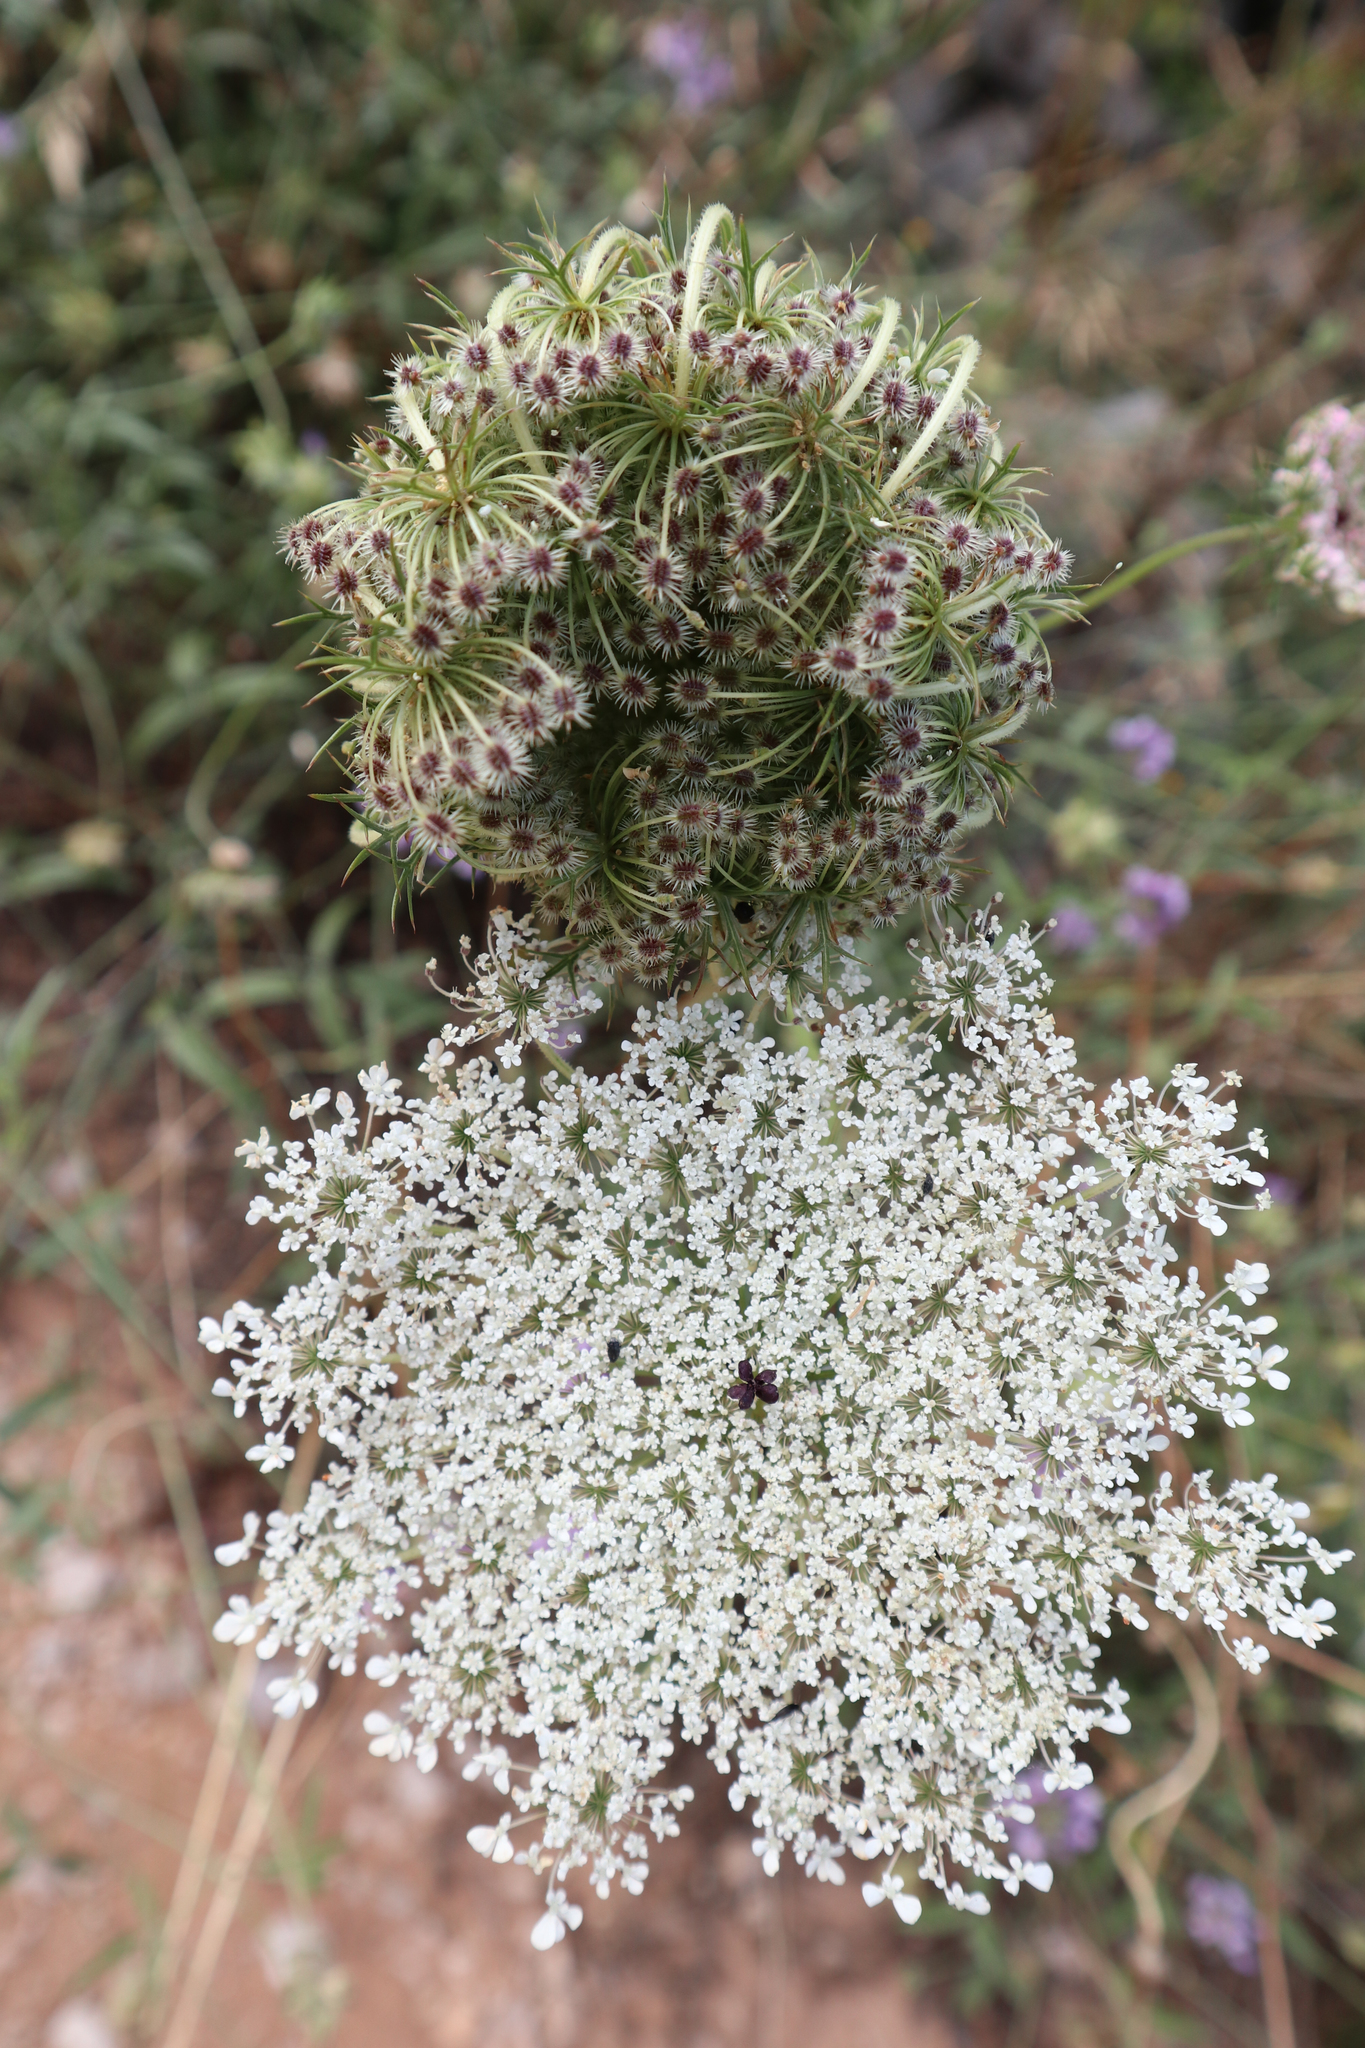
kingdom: Plantae
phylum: Tracheophyta
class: Magnoliopsida
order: Apiales
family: Apiaceae
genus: Daucus
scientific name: Daucus carota
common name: Wild carrot
